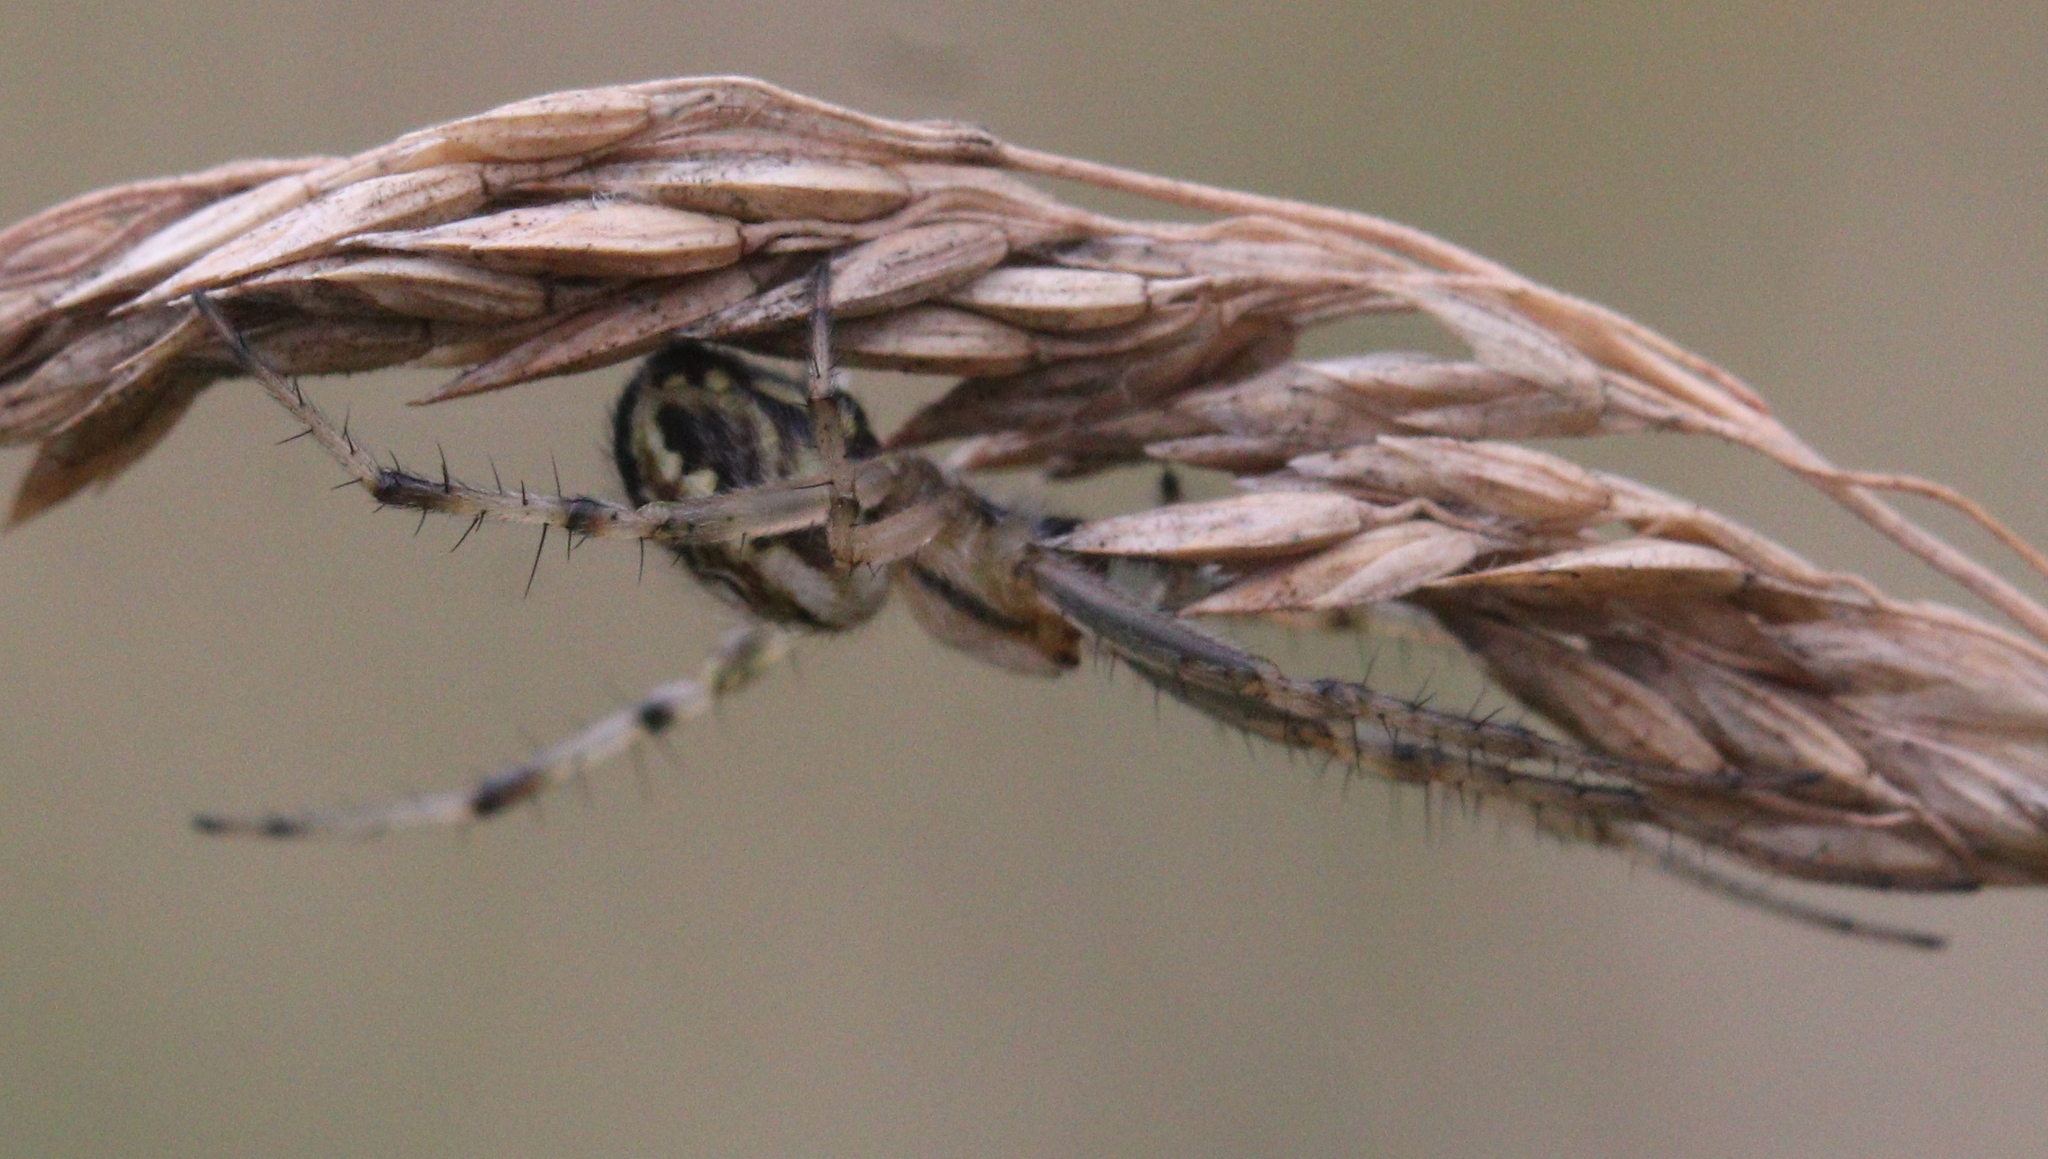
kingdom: Animalia
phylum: Arthropoda
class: Arachnida
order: Araneae
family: Araneidae
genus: Neoscona
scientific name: Neoscona adianta
